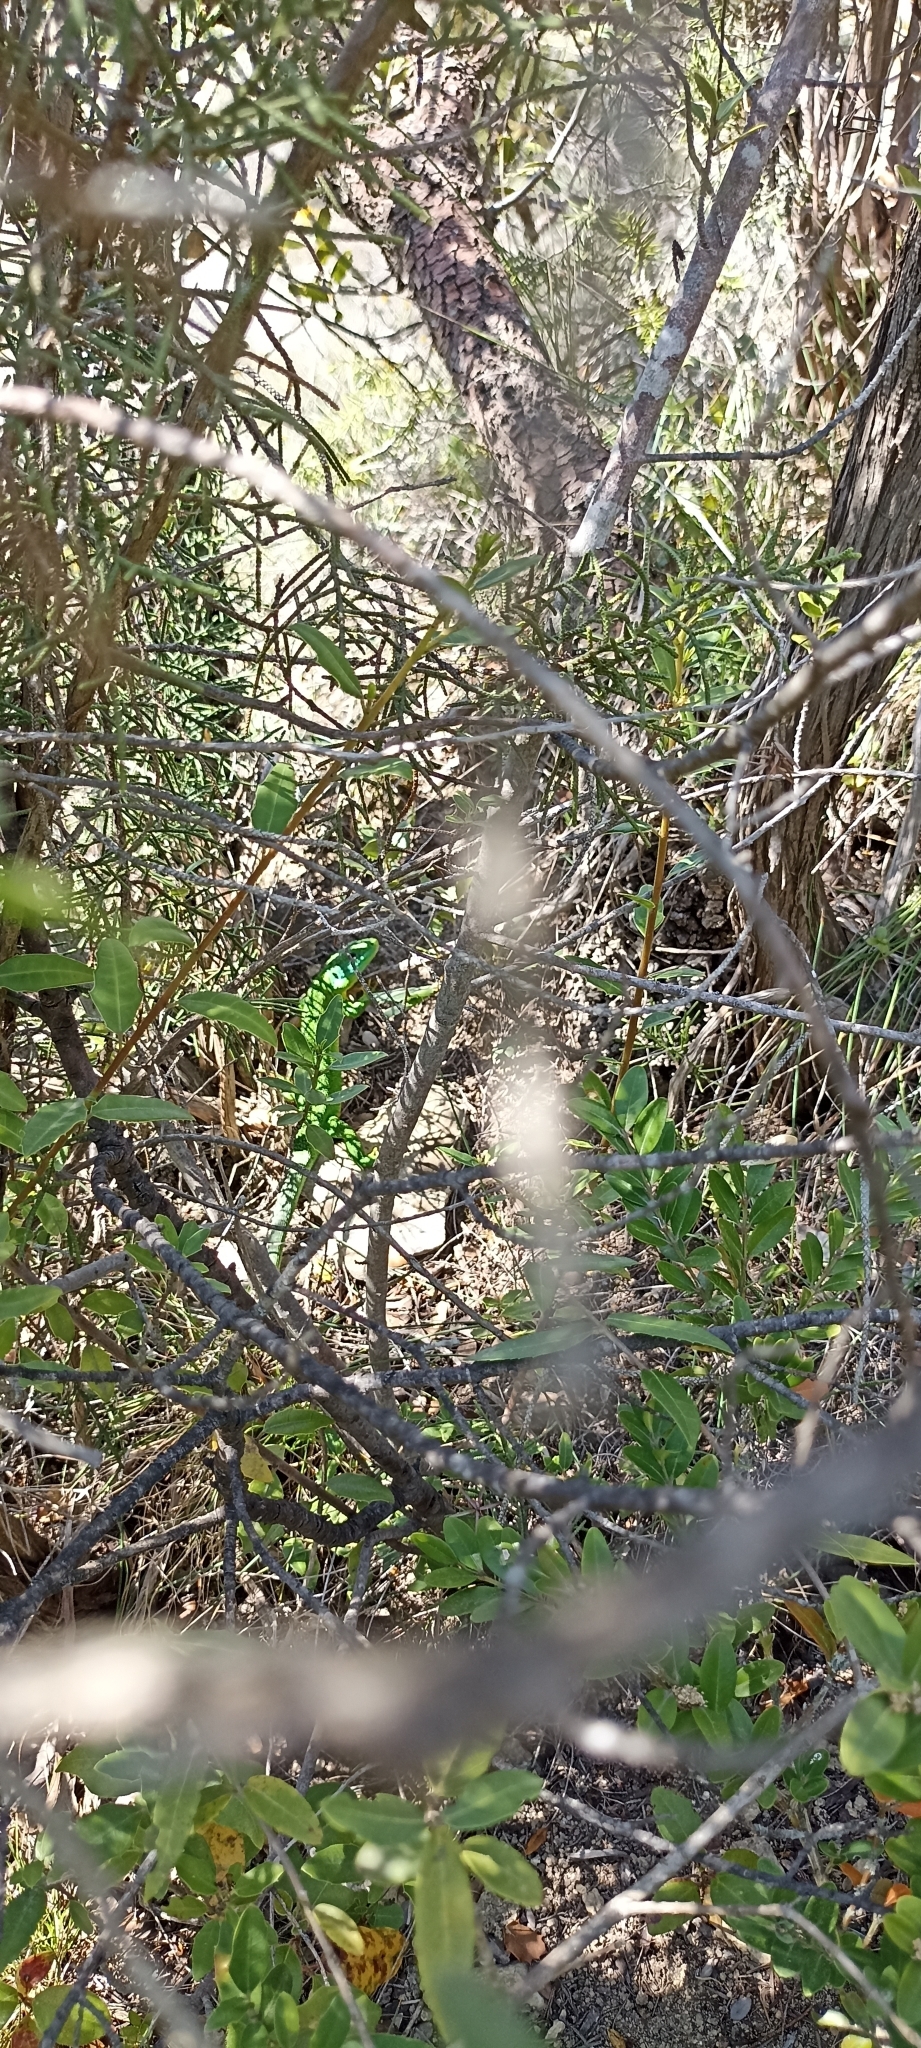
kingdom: Animalia
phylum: Chordata
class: Squamata
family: Lacertidae
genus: Lacerta
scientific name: Lacerta bilineata
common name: Western green lizard
